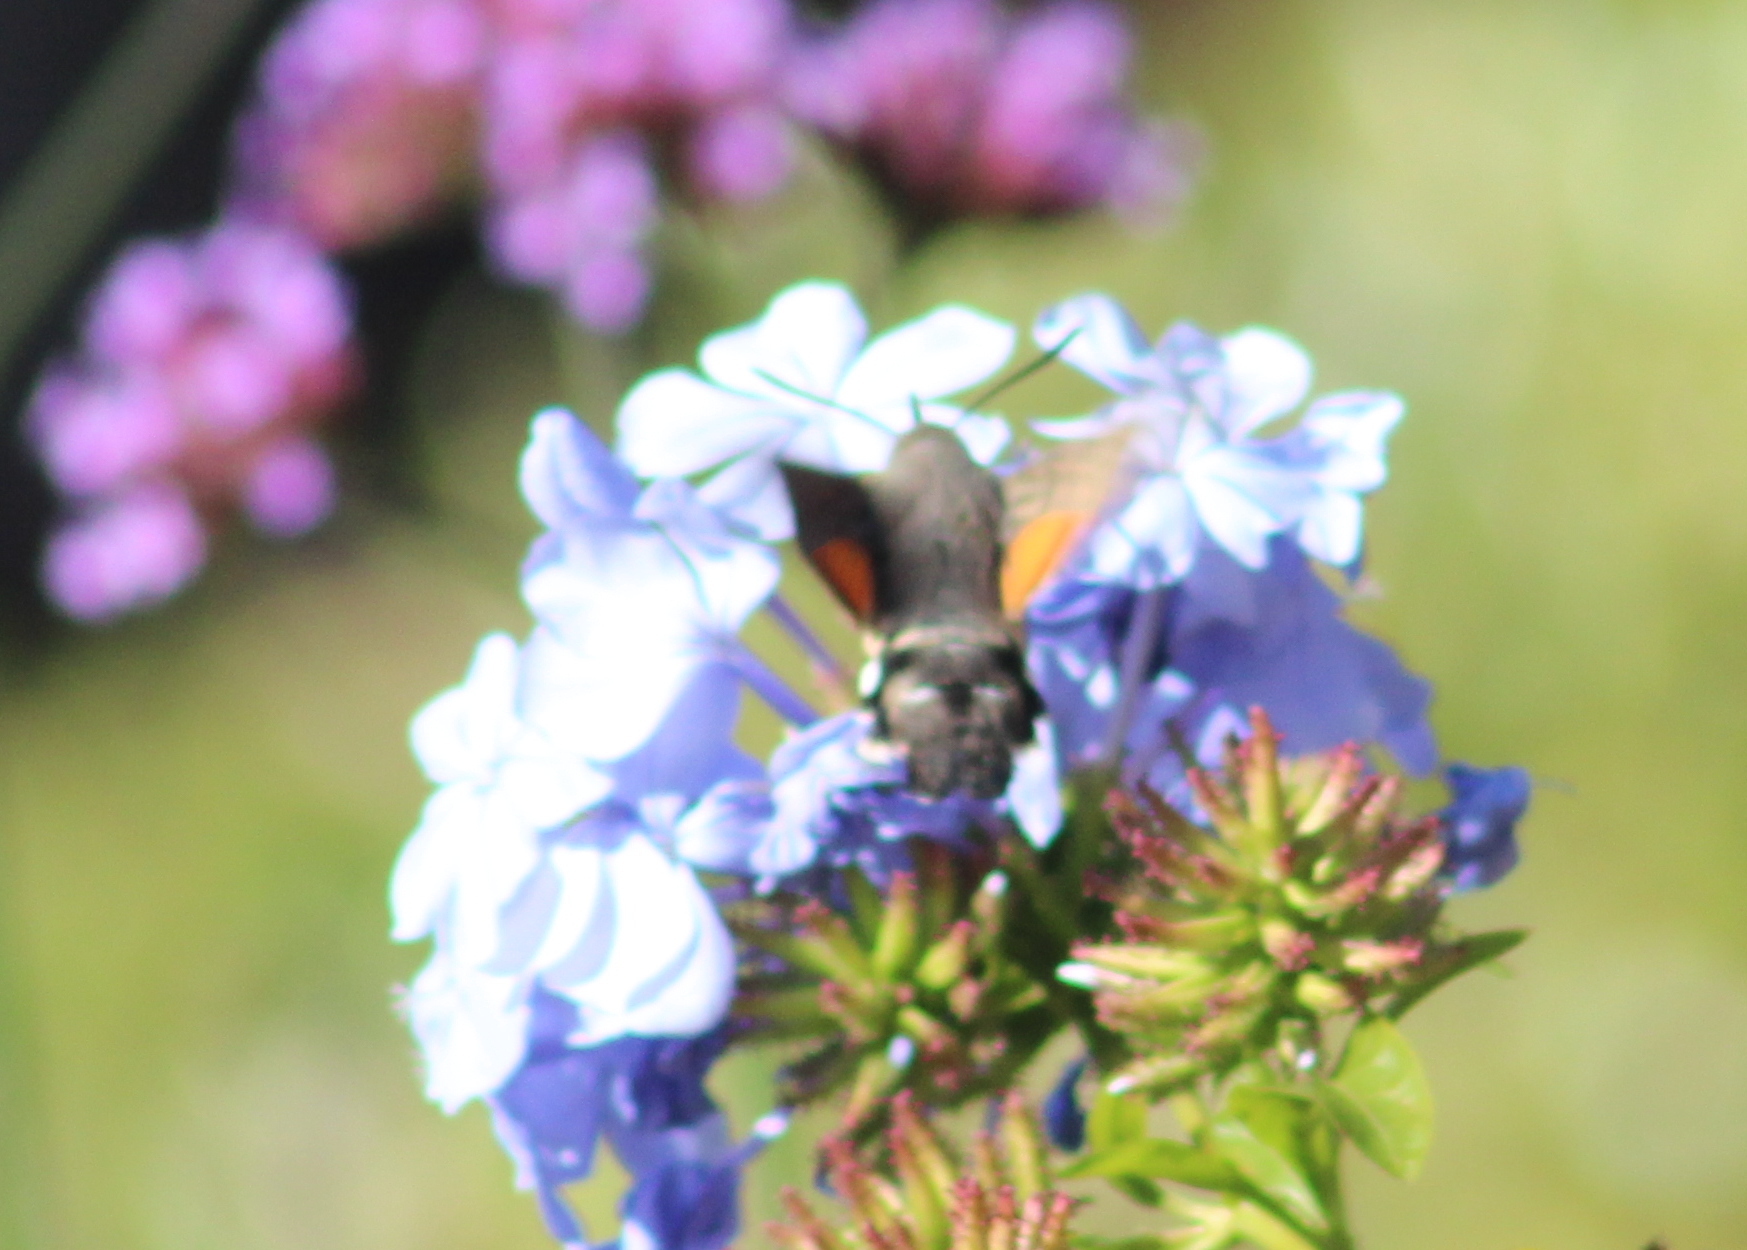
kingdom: Animalia
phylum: Arthropoda
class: Insecta
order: Lepidoptera
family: Sphingidae
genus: Macroglossum
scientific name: Macroglossum stellatarum
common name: Humming-bird hawk-moth
